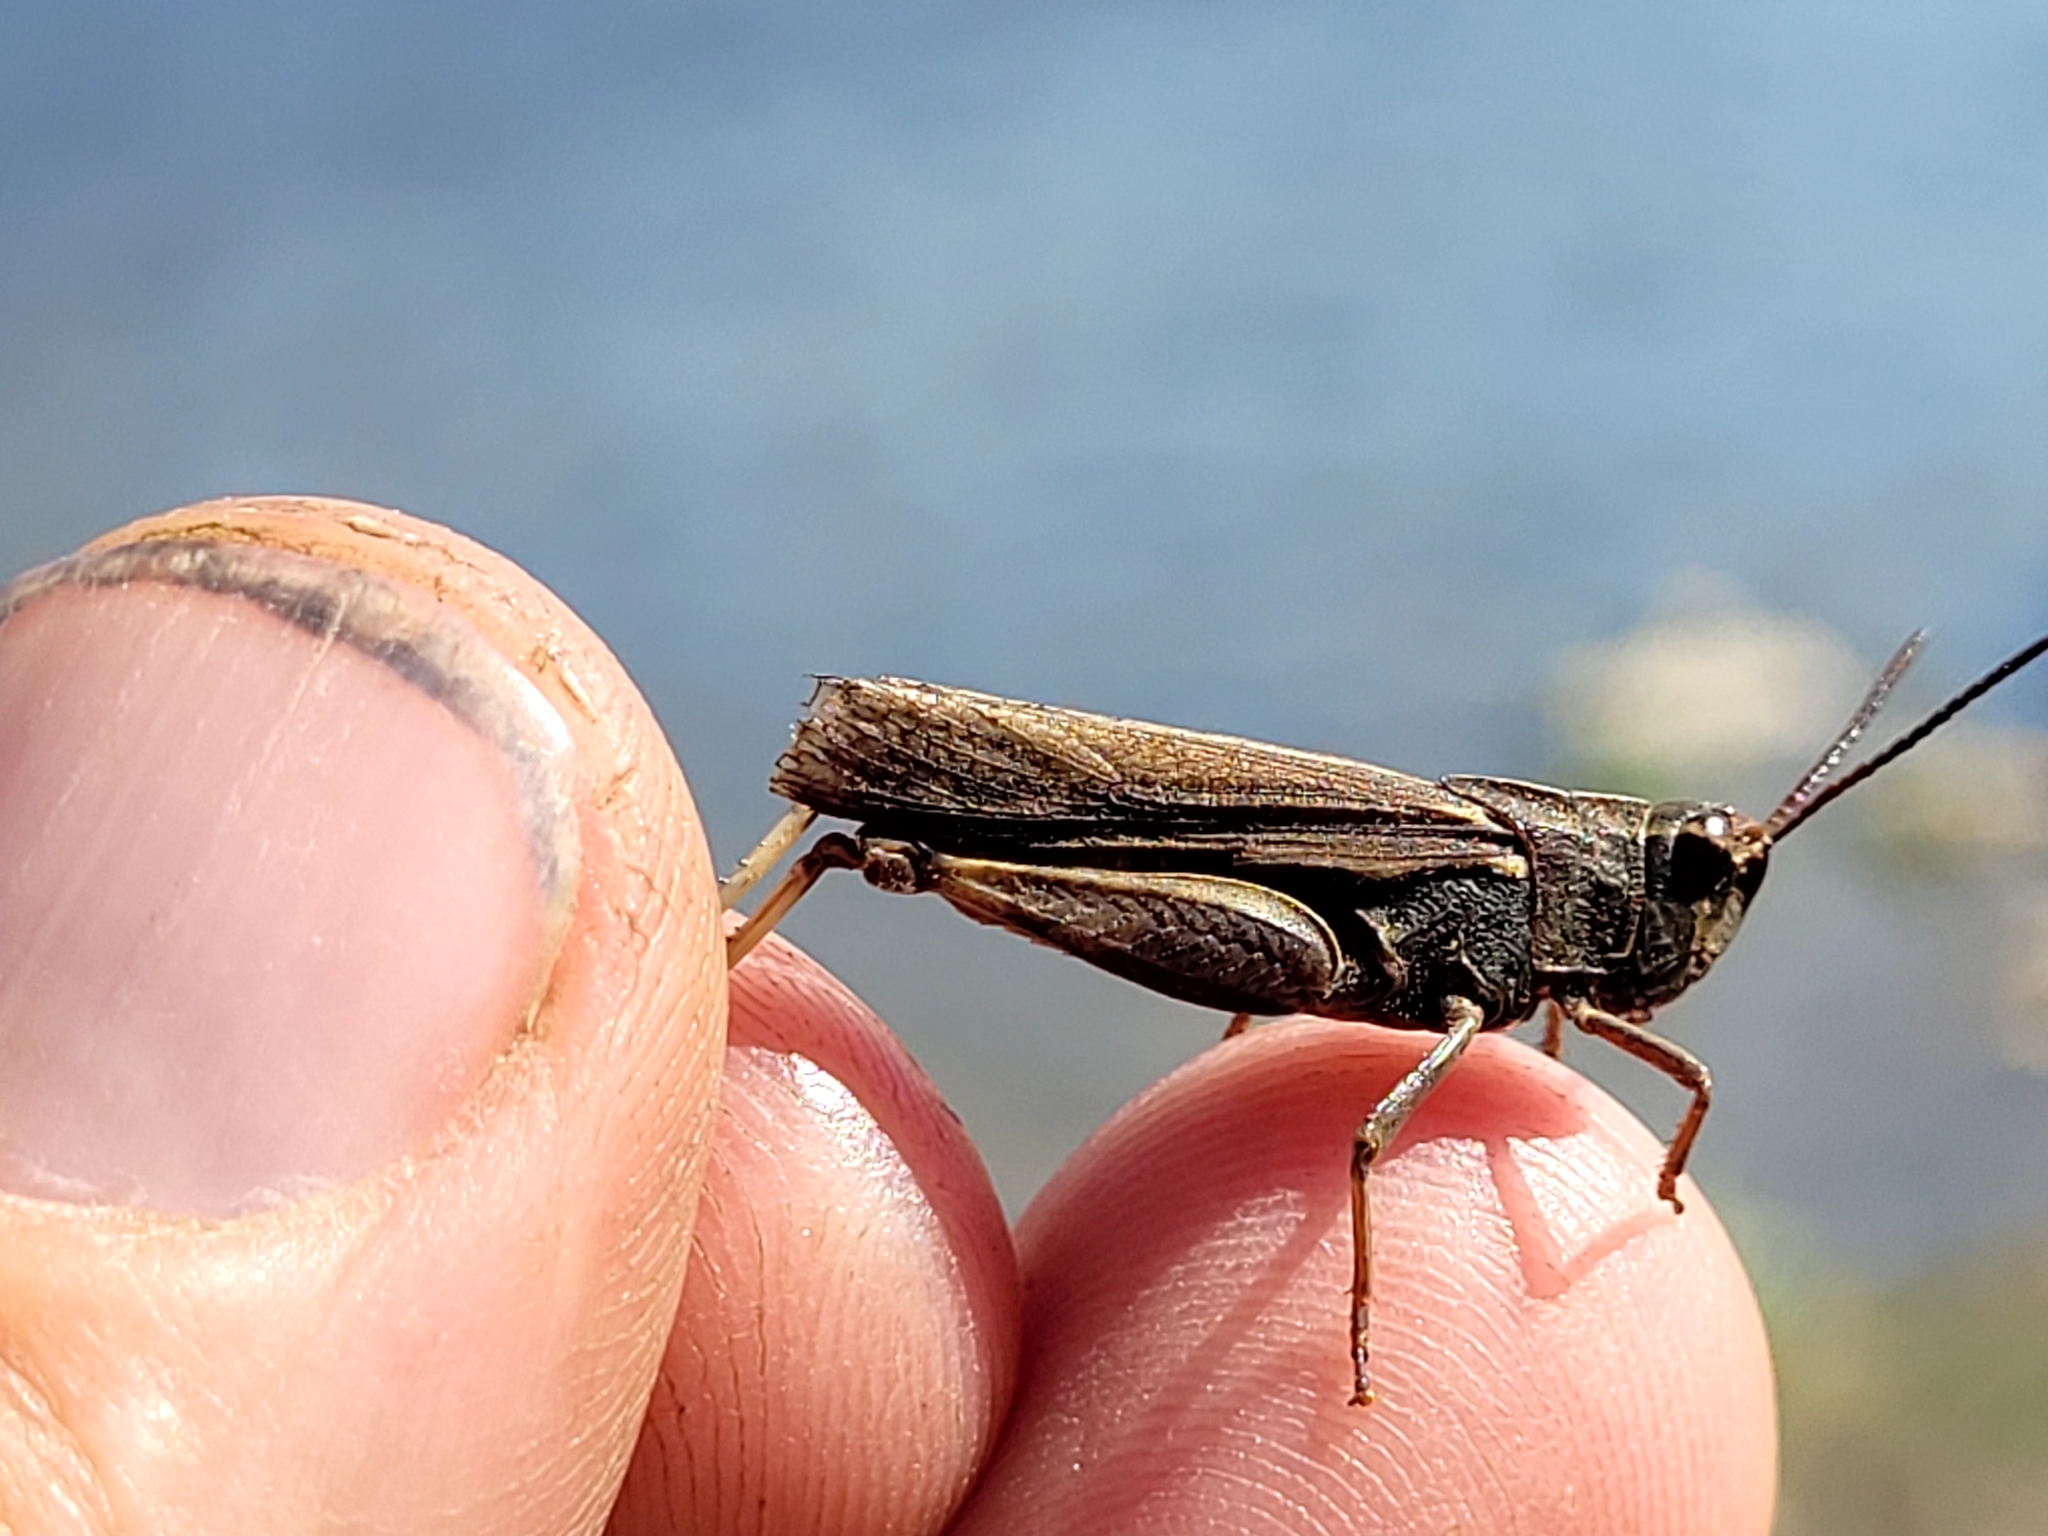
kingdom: Animalia
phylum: Arthropoda
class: Insecta
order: Orthoptera
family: Acrididae
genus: Chortophaga
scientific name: Chortophaga viridifasciata
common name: Green-striped grasshopper
